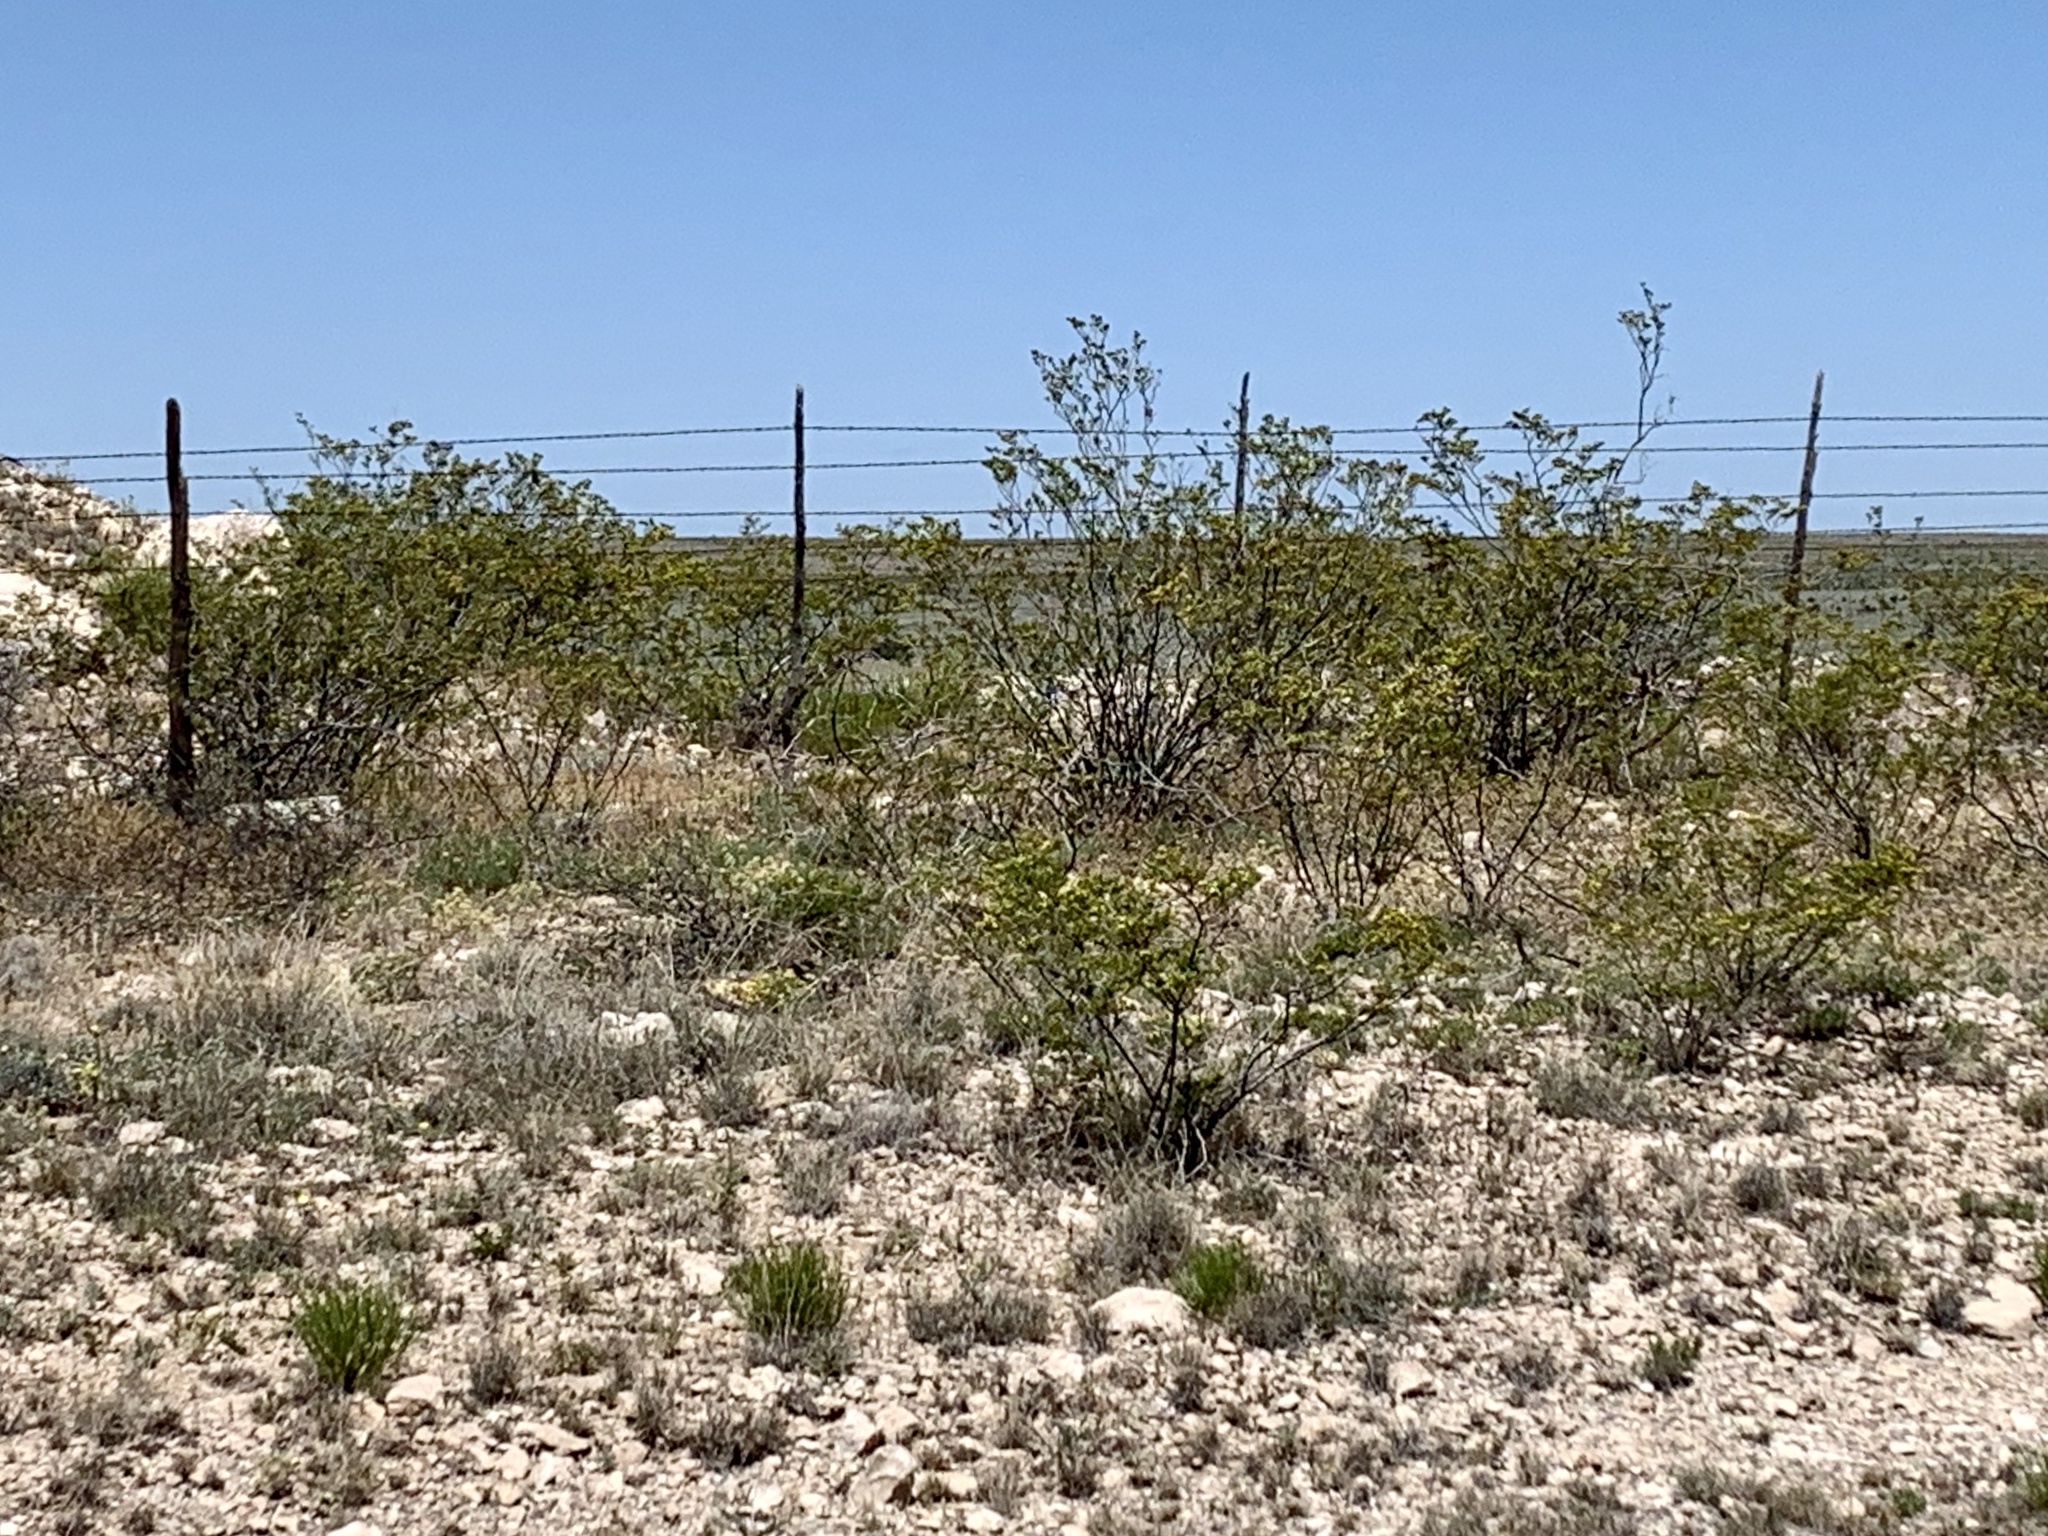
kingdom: Plantae
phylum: Tracheophyta
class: Magnoliopsida
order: Zygophyllales
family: Zygophyllaceae
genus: Larrea
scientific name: Larrea tridentata
